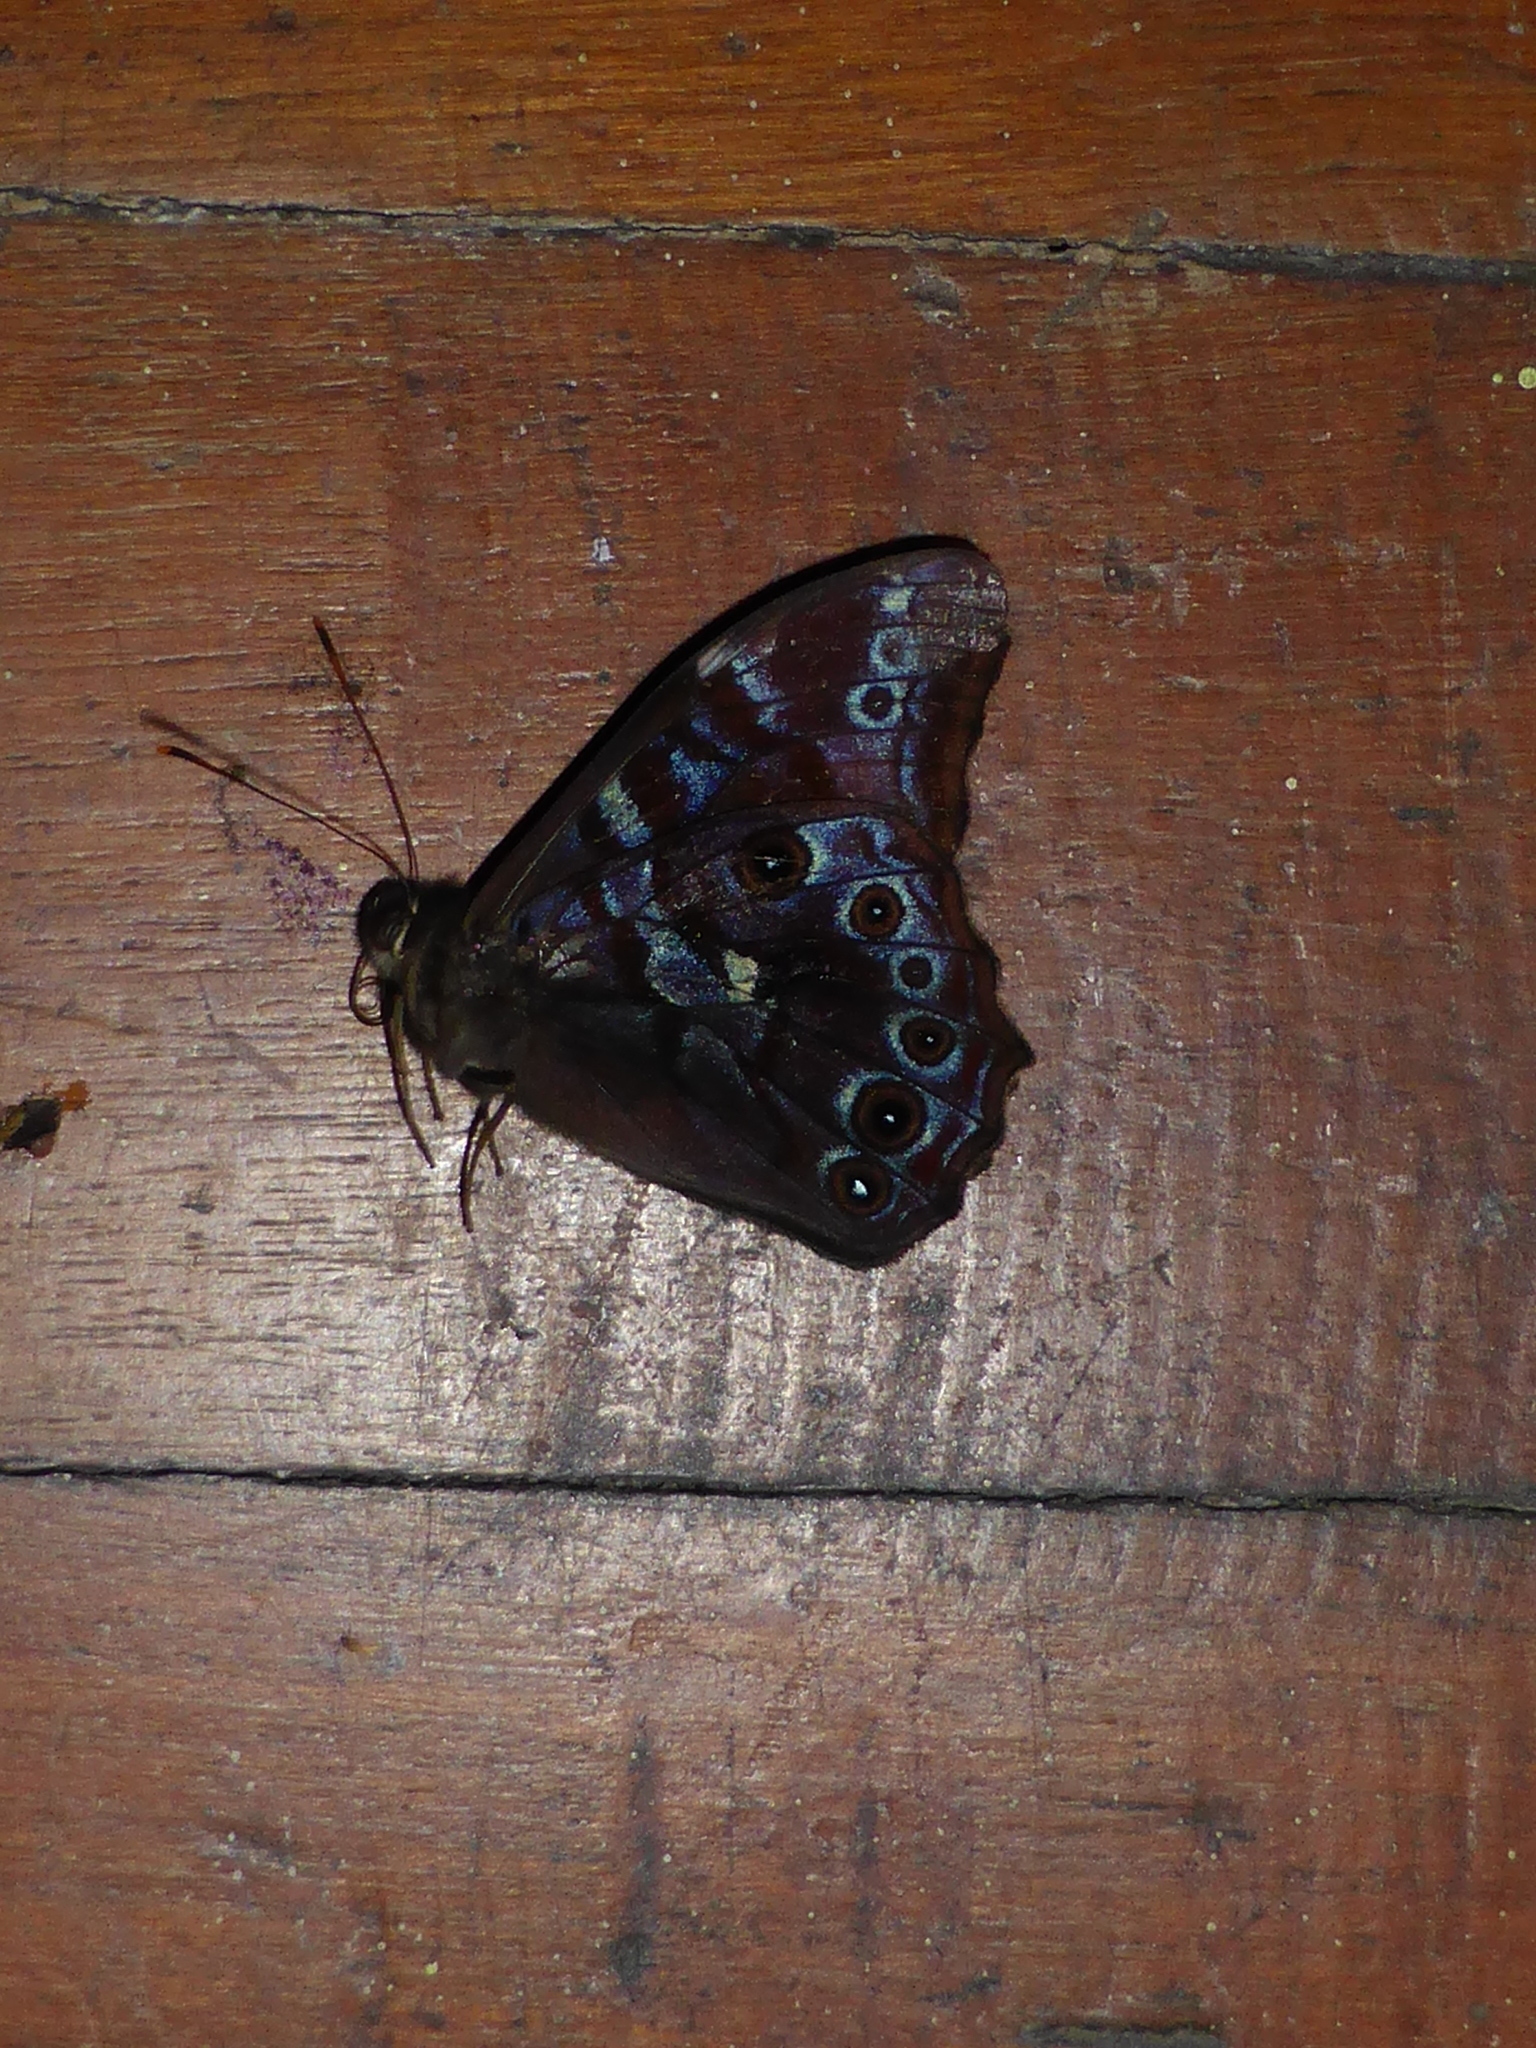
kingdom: Animalia
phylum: Arthropoda
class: Insecta
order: Lepidoptera
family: Nymphalidae
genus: Lethe
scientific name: Lethe perimede
